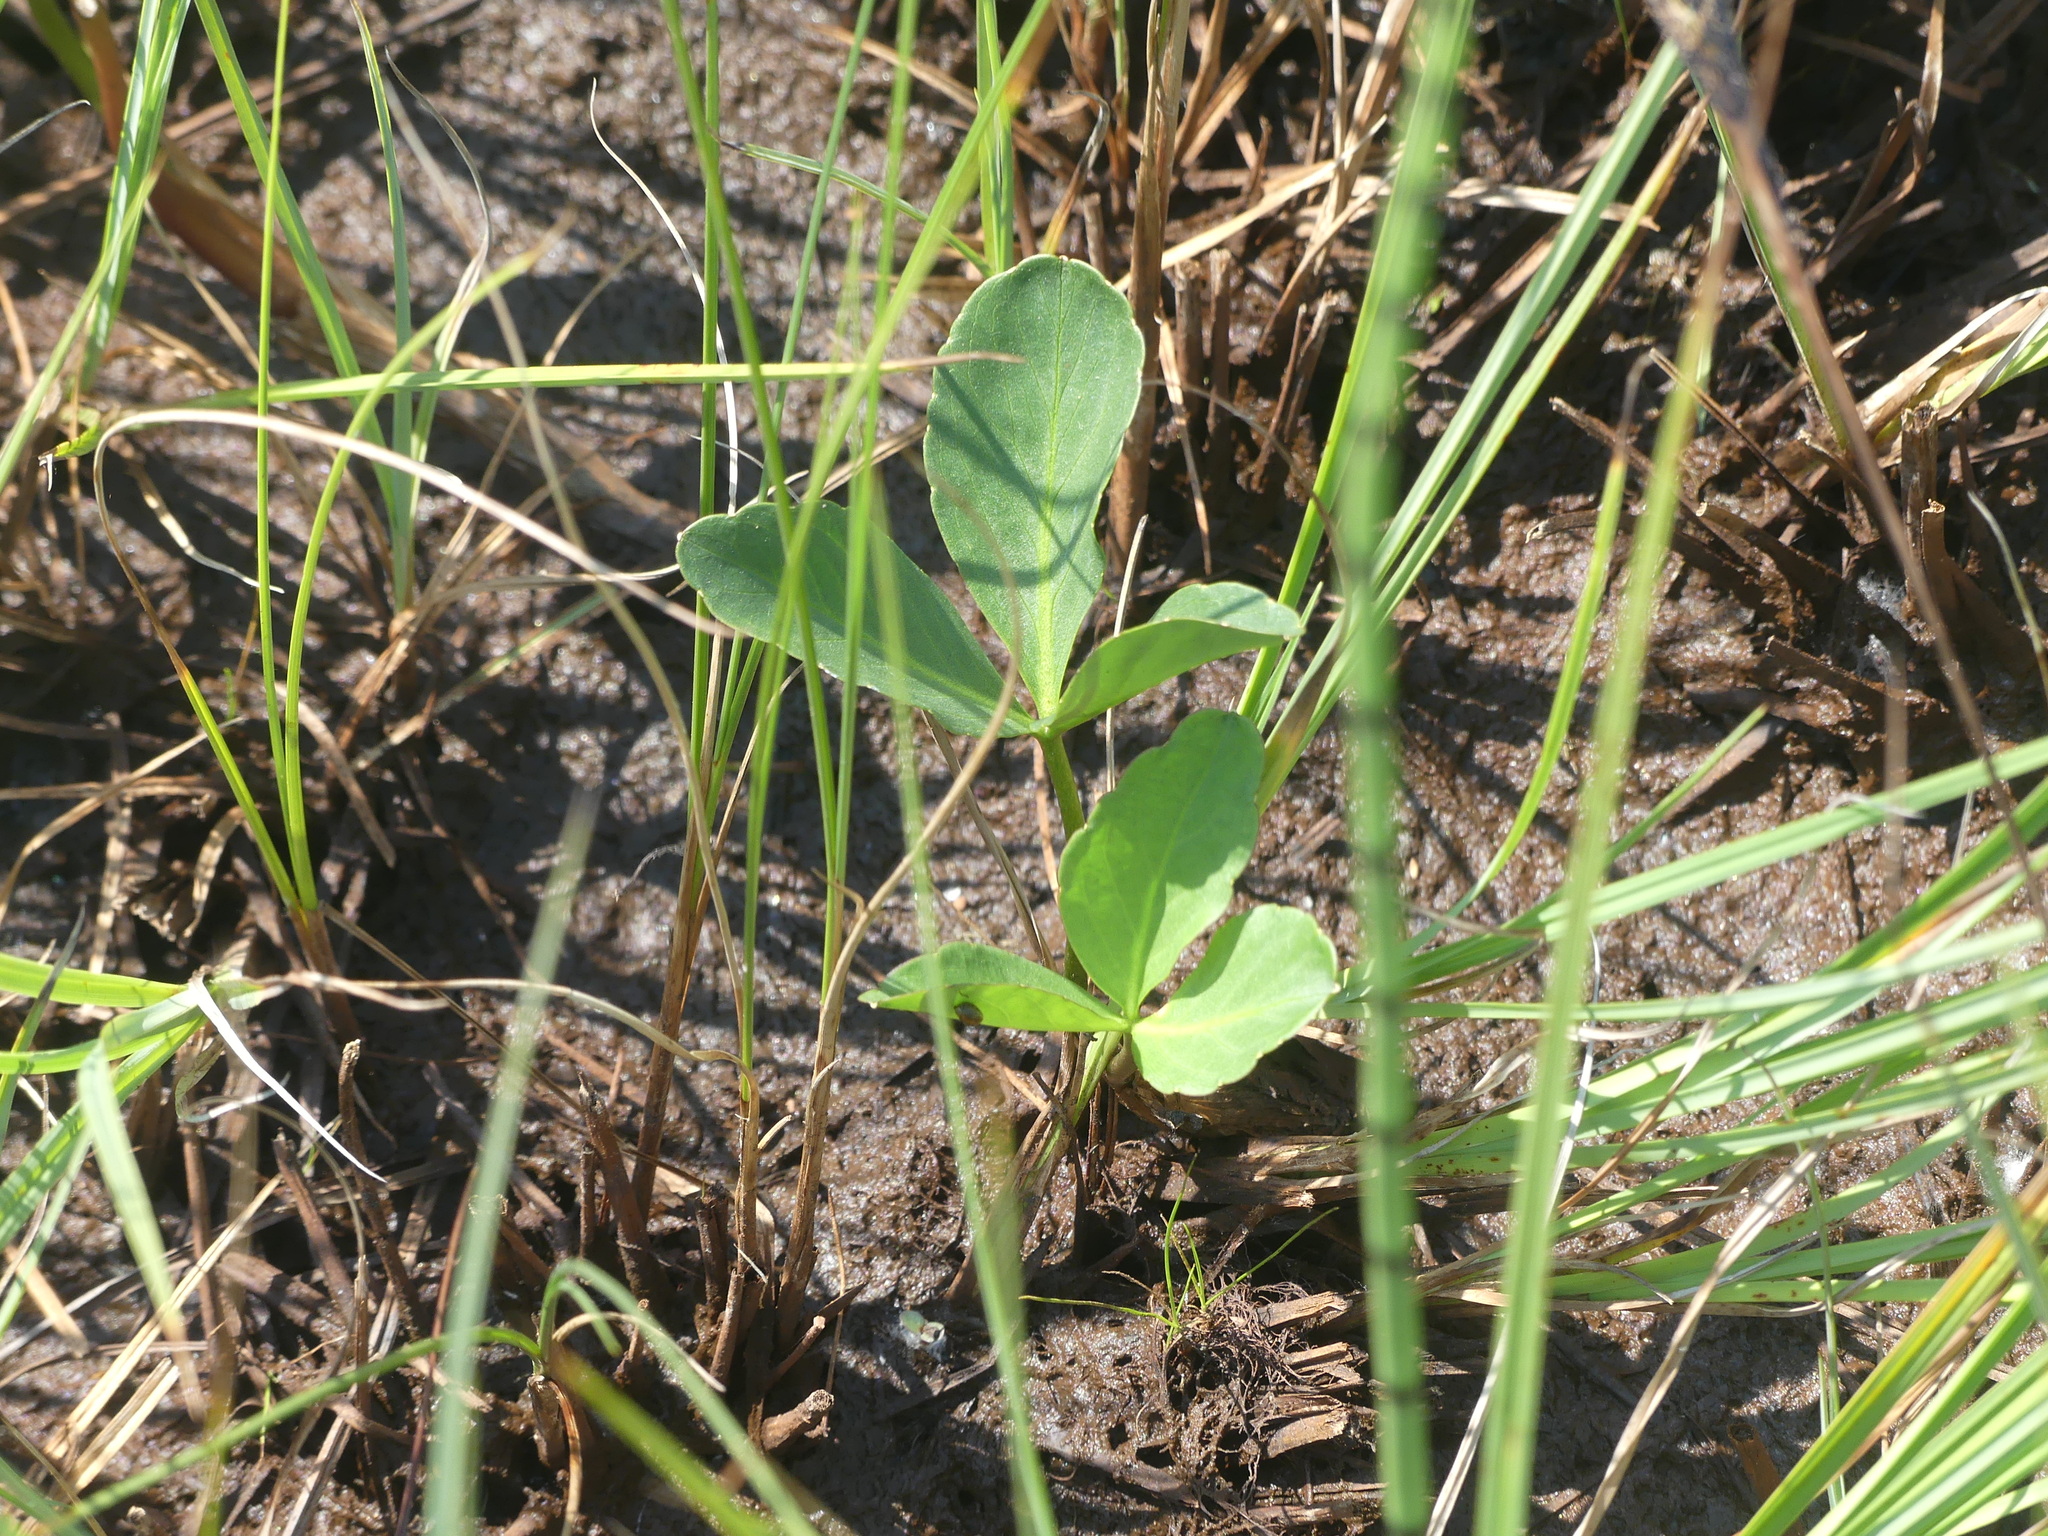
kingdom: Plantae
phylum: Tracheophyta
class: Magnoliopsida
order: Asterales
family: Menyanthaceae
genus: Menyanthes
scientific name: Menyanthes trifoliata
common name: Bogbean
